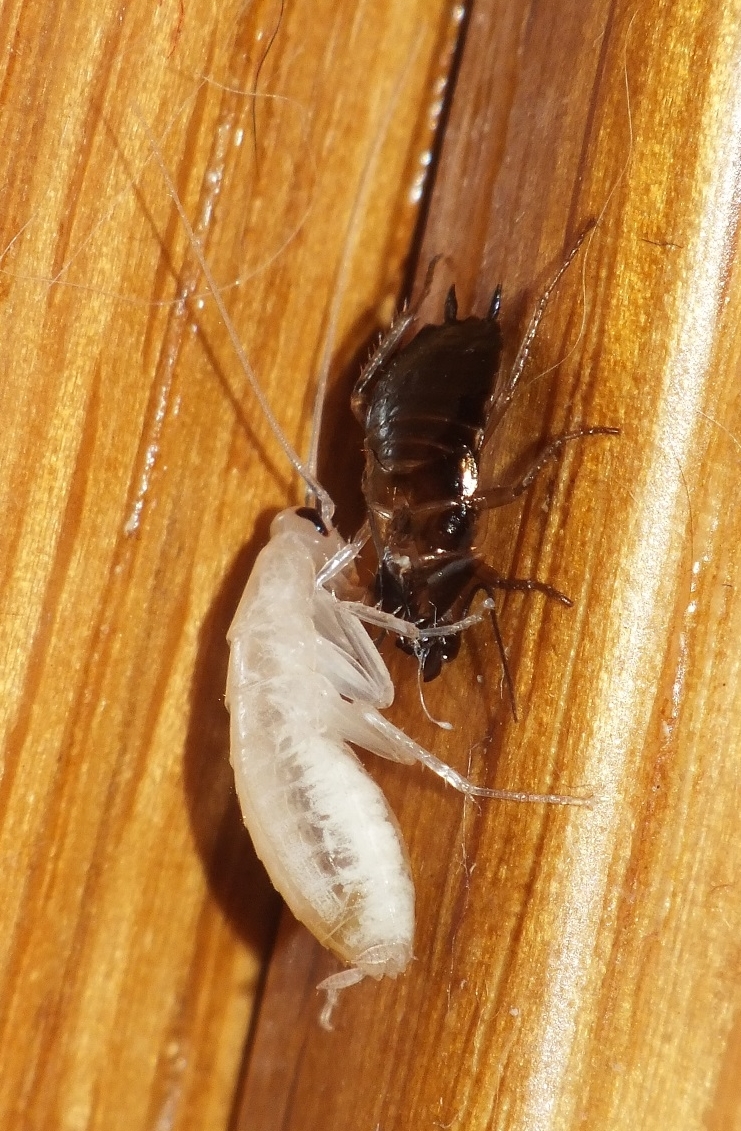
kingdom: Animalia
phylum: Arthropoda
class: Insecta
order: Blattodea
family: Ectobiidae
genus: Blattella
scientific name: Blattella germanica
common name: German cockroach
